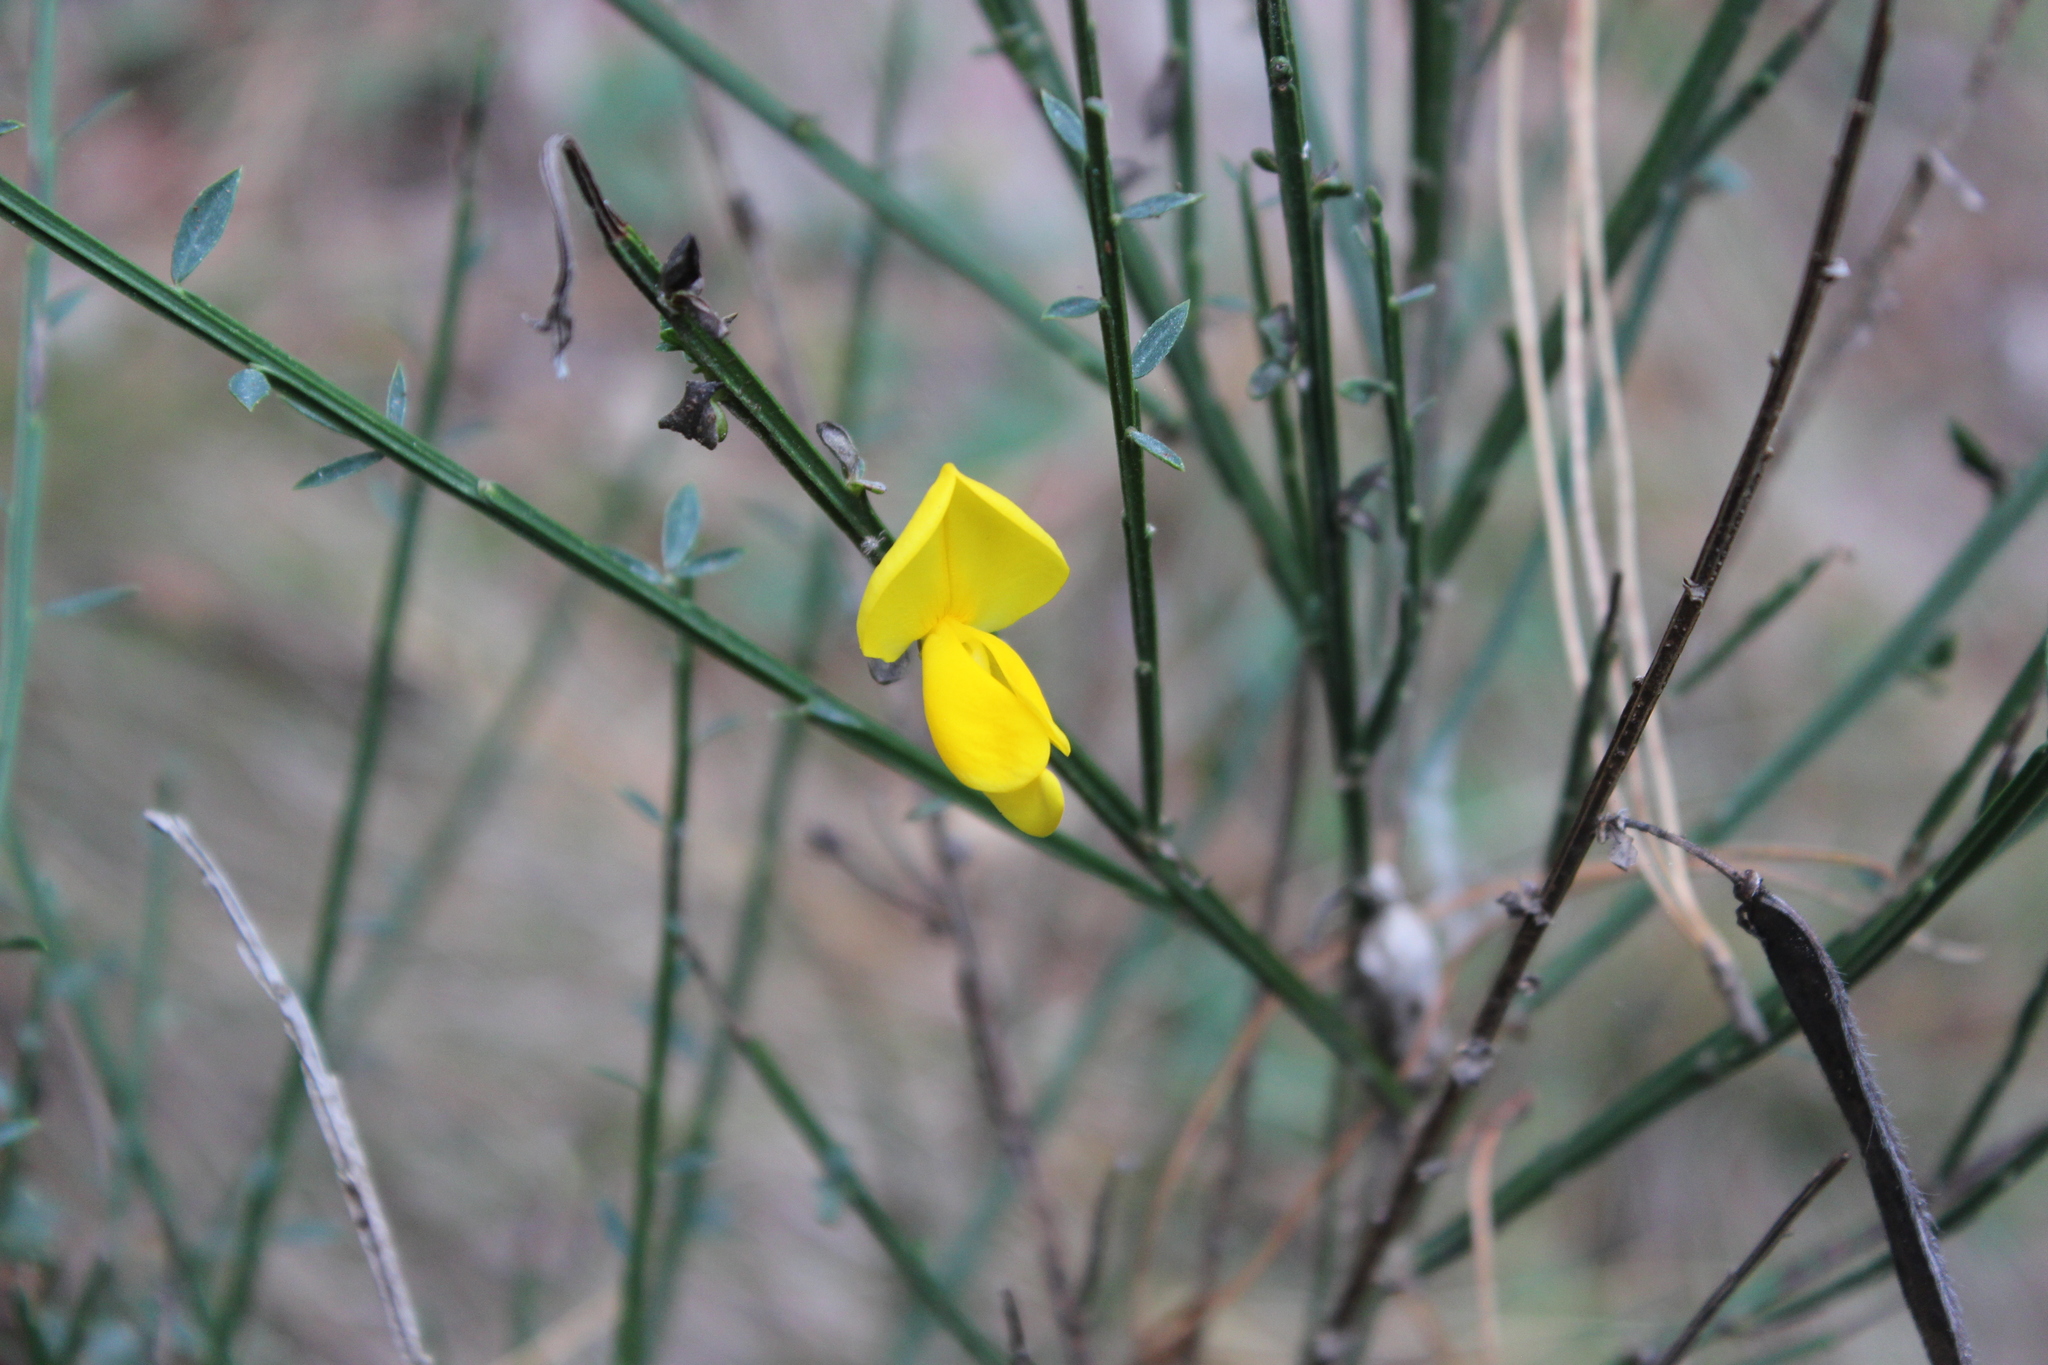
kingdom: Plantae
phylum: Tracheophyta
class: Magnoliopsida
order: Fabales
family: Fabaceae
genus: Cytisus
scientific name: Cytisus scoparius
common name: Scotch broom
